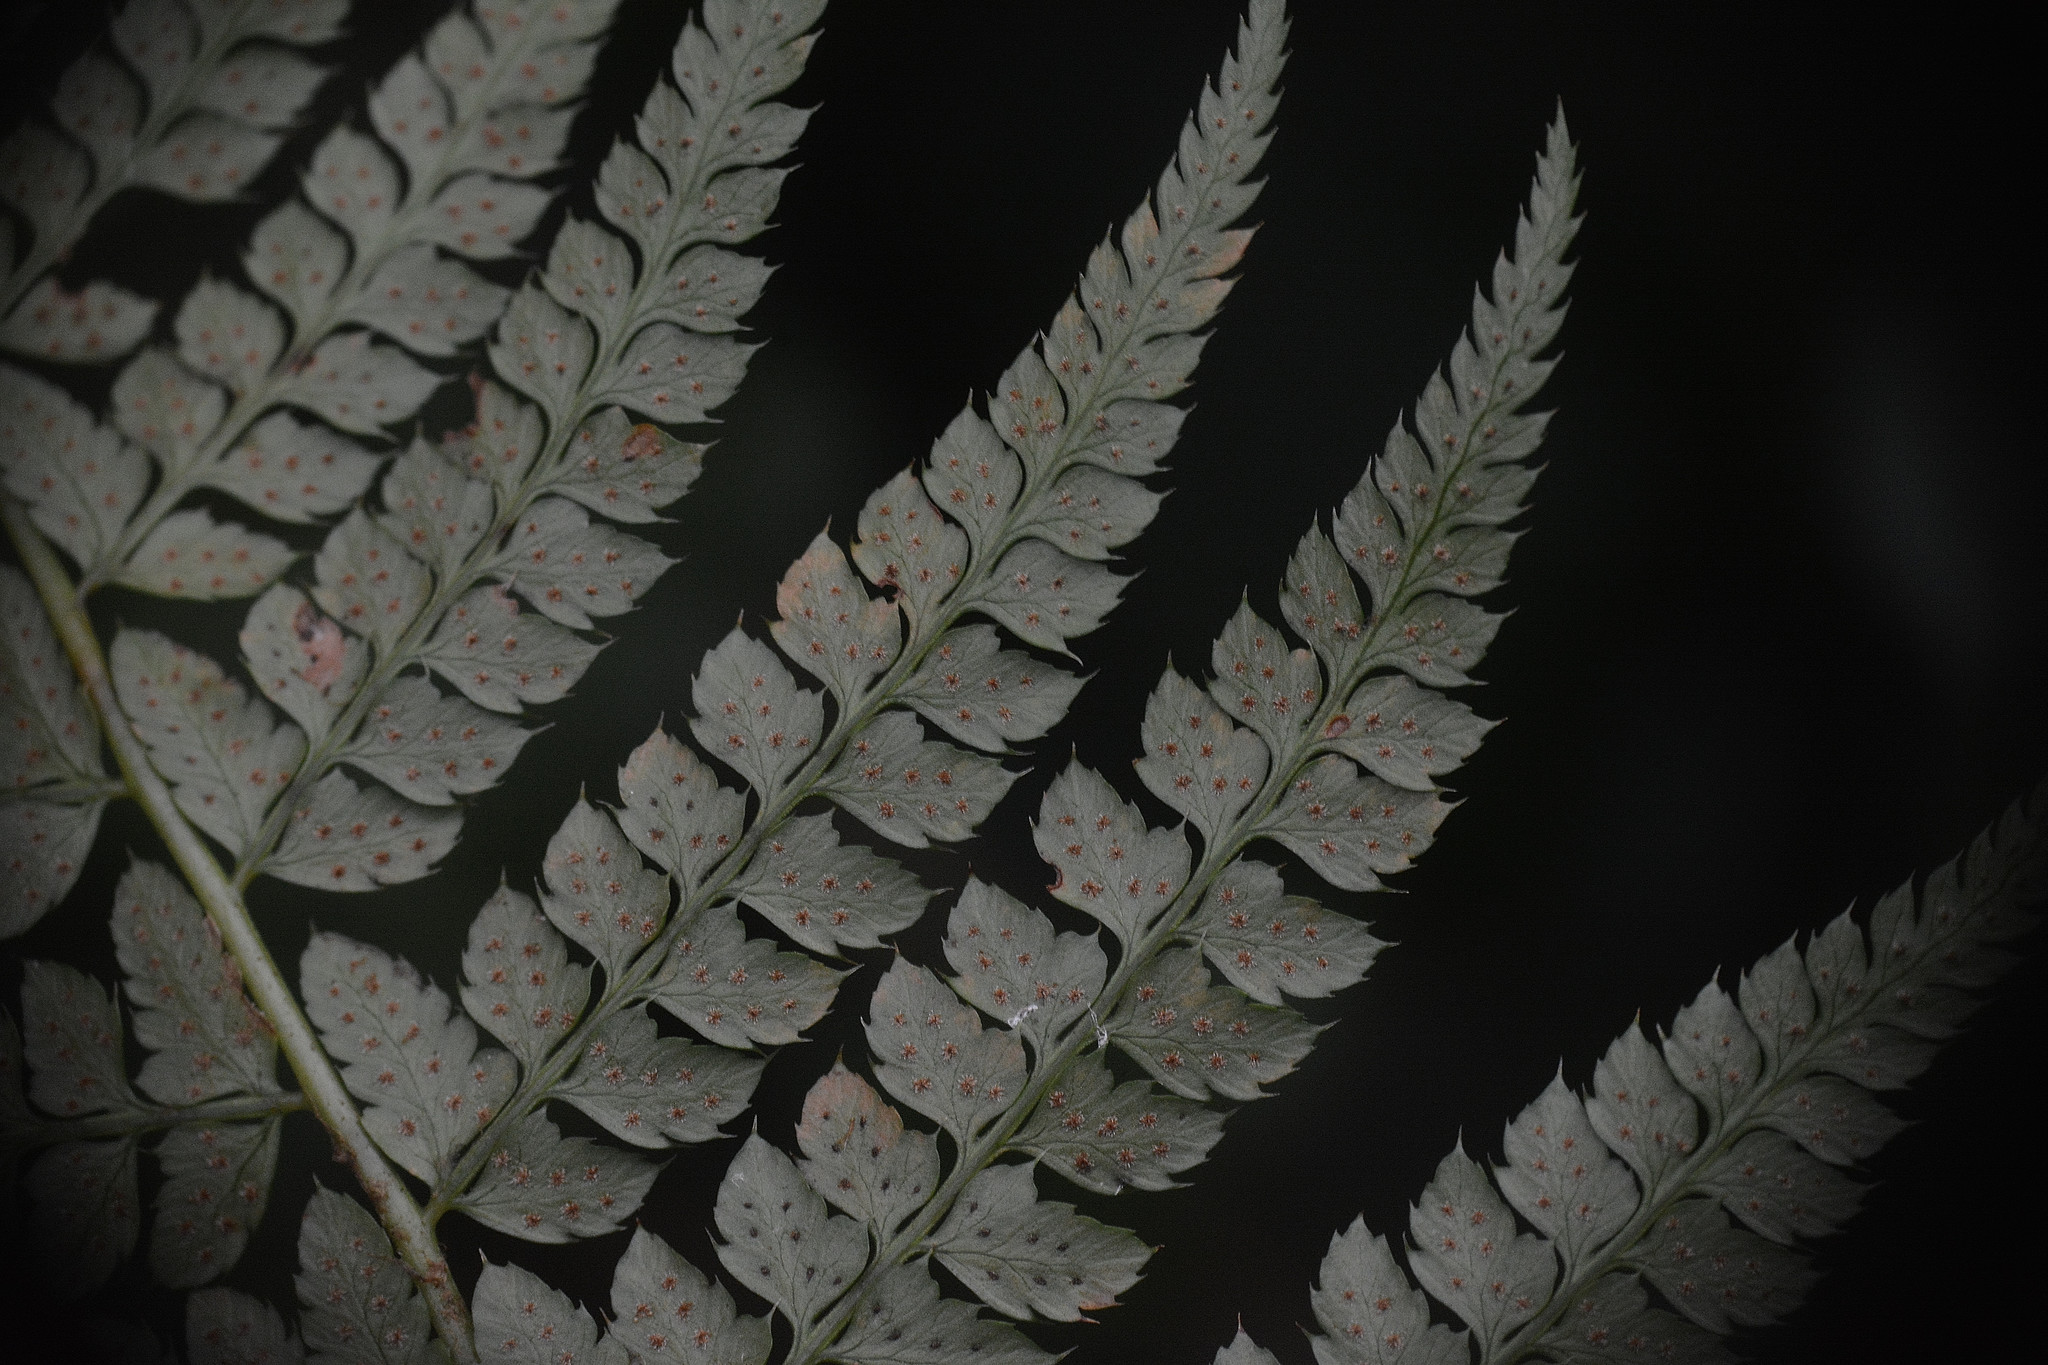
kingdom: Plantae
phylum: Tracheophyta
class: Polypodiopsida
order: Polypodiales
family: Dryopteridaceae
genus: Polystichum
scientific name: Polystichum setiferum
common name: Soft shield-fern
